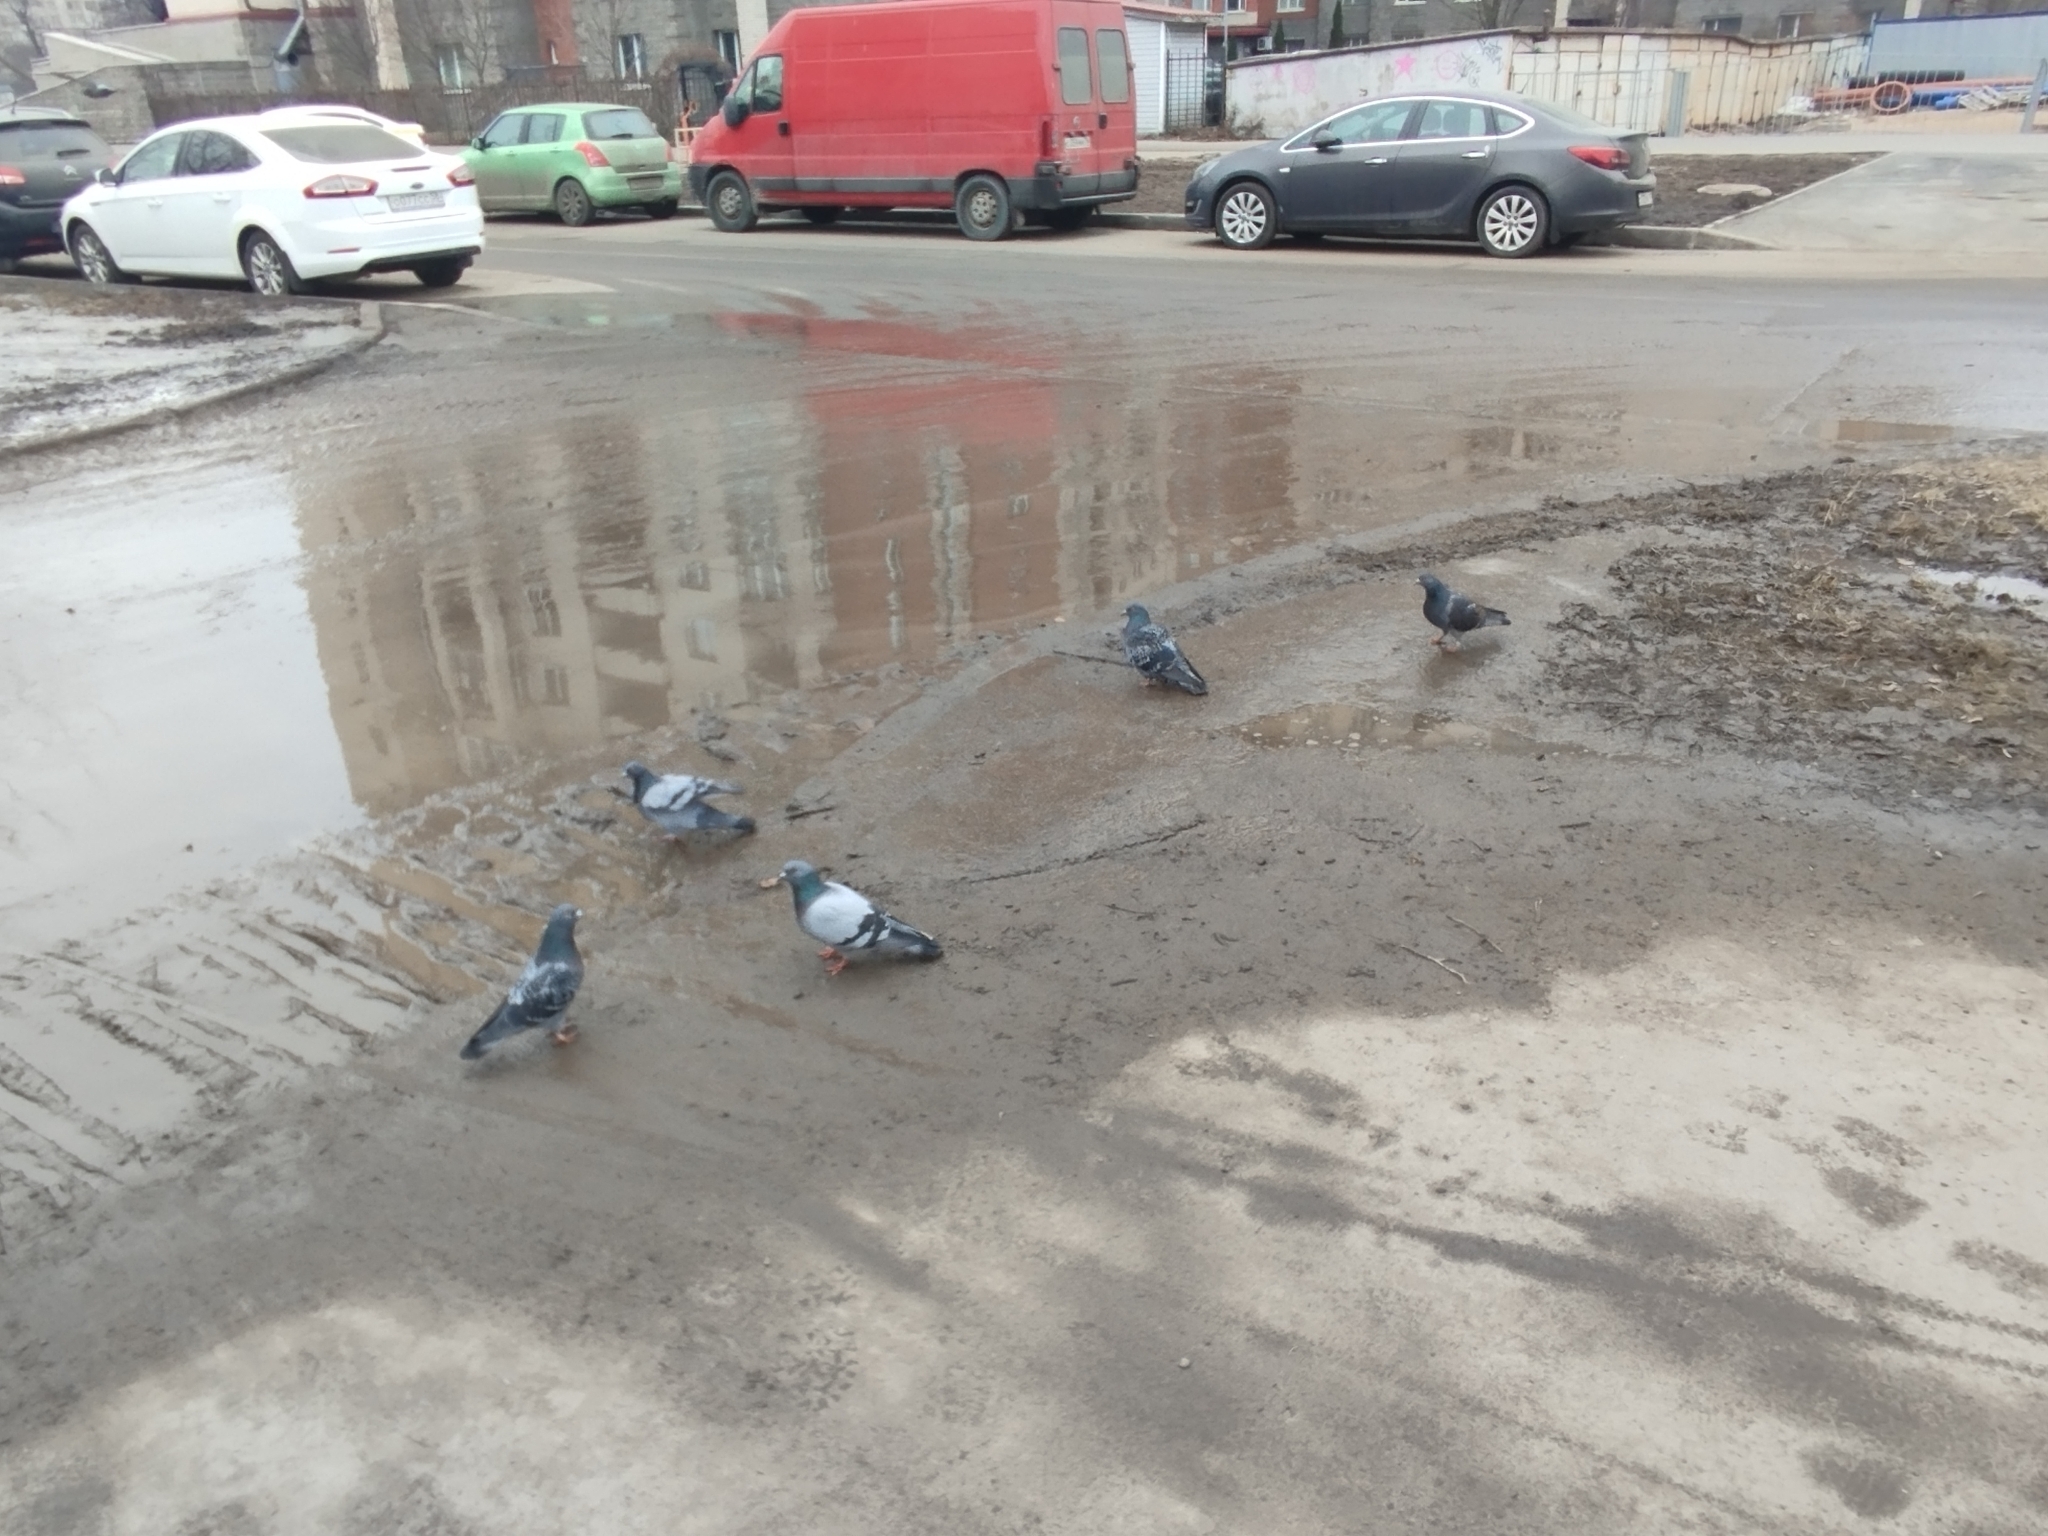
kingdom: Animalia
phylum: Chordata
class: Aves
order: Columbiformes
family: Columbidae
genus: Columba
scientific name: Columba livia
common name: Rock pigeon
